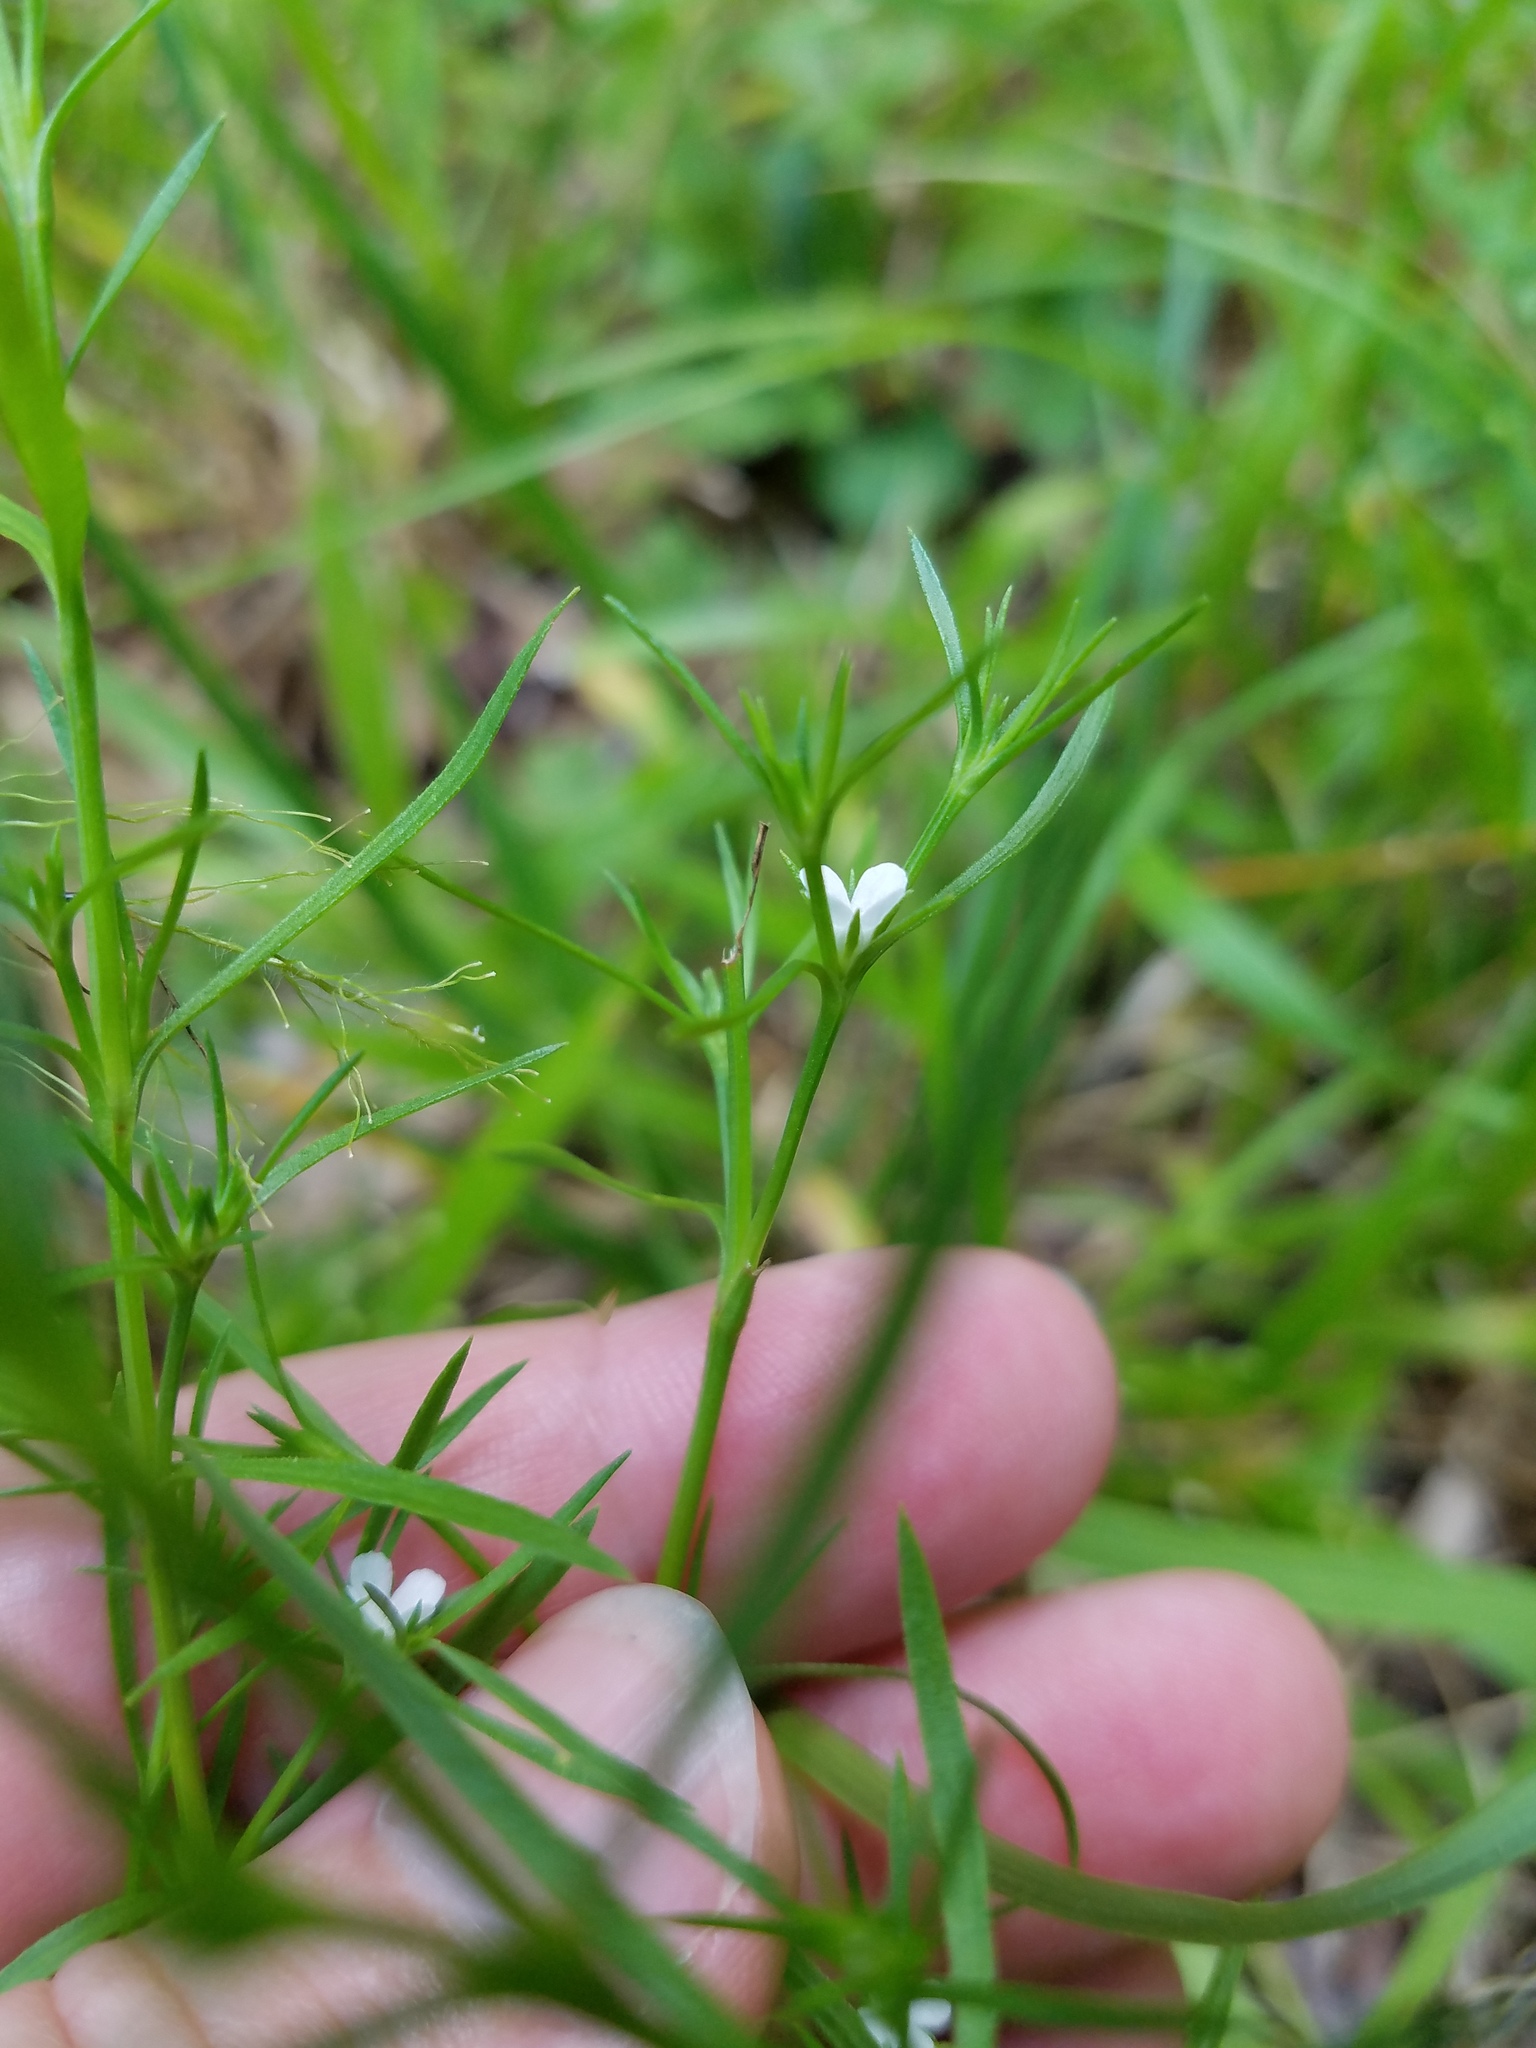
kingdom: Plantae
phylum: Tracheophyta
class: Magnoliopsida
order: Lamiales
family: Tetrachondraceae
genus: Polypremum
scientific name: Polypremum procumbens
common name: Juniper-leaf
